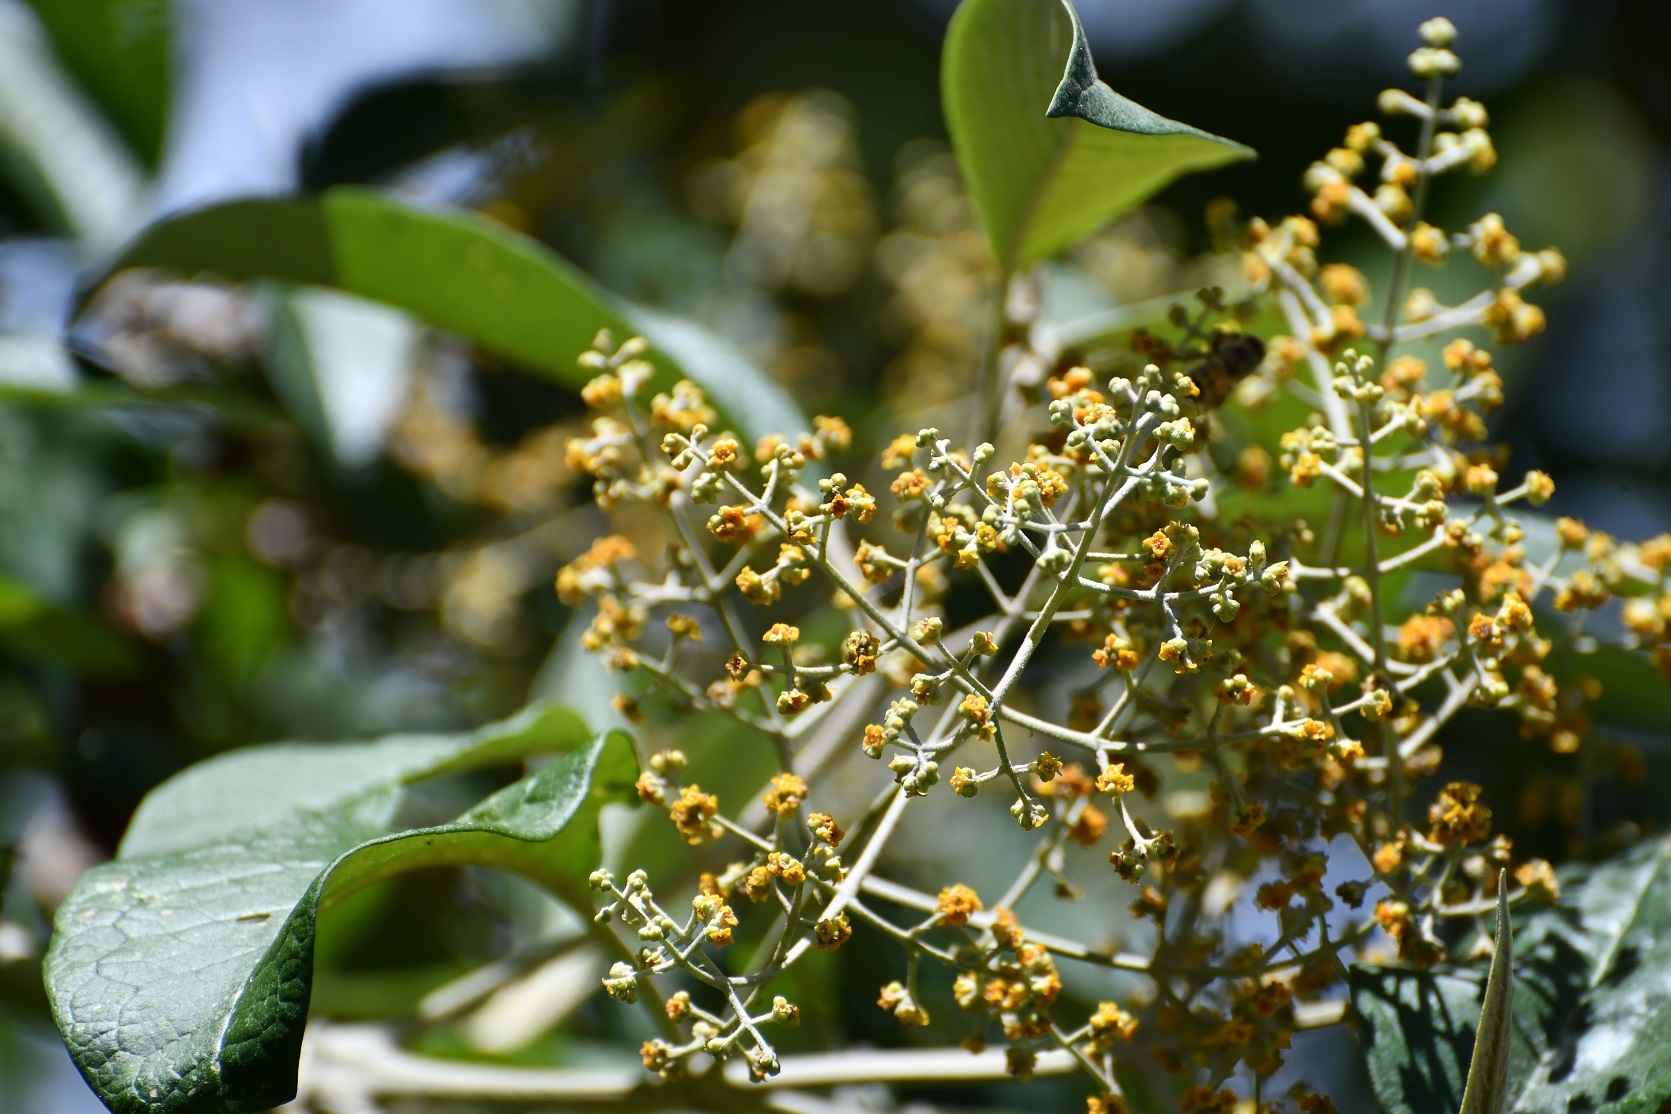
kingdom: Plantae
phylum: Tracheophyta
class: Magnoliopsida
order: Lamiales
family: Scrophulariaceae
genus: Buddleja
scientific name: Buddleja cordata
